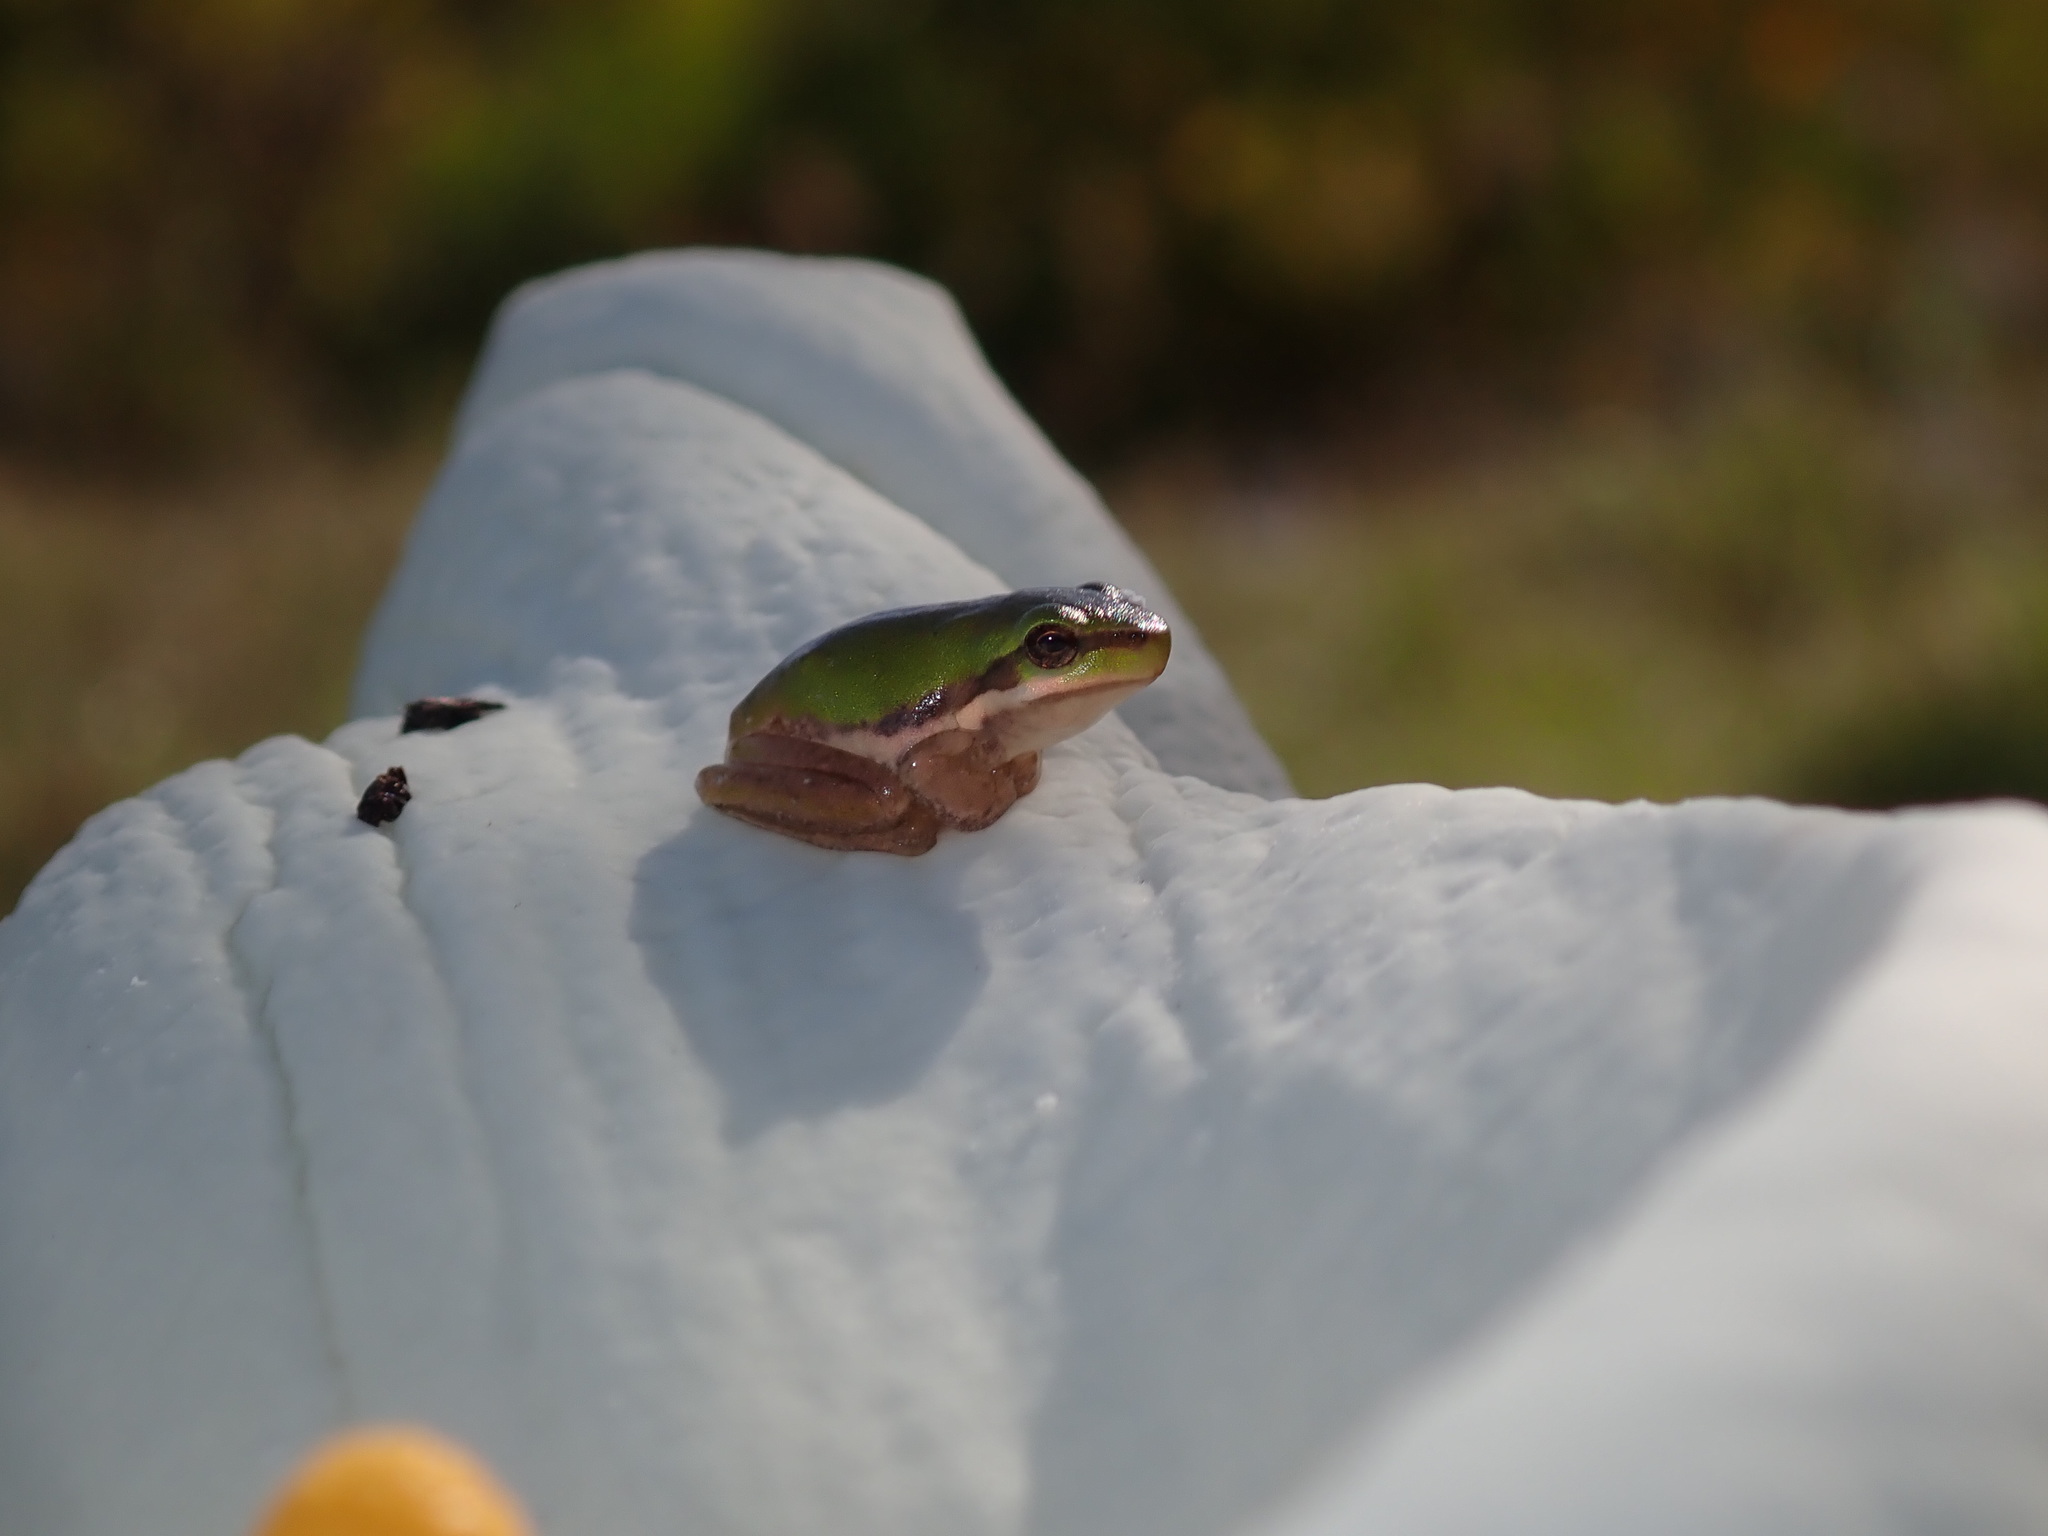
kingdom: Animalia
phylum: Chordata
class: Amphibia
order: Anura
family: Pelodryadidae
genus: Litoria
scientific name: Litoria fallax
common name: Eastern dwarf treefrog
